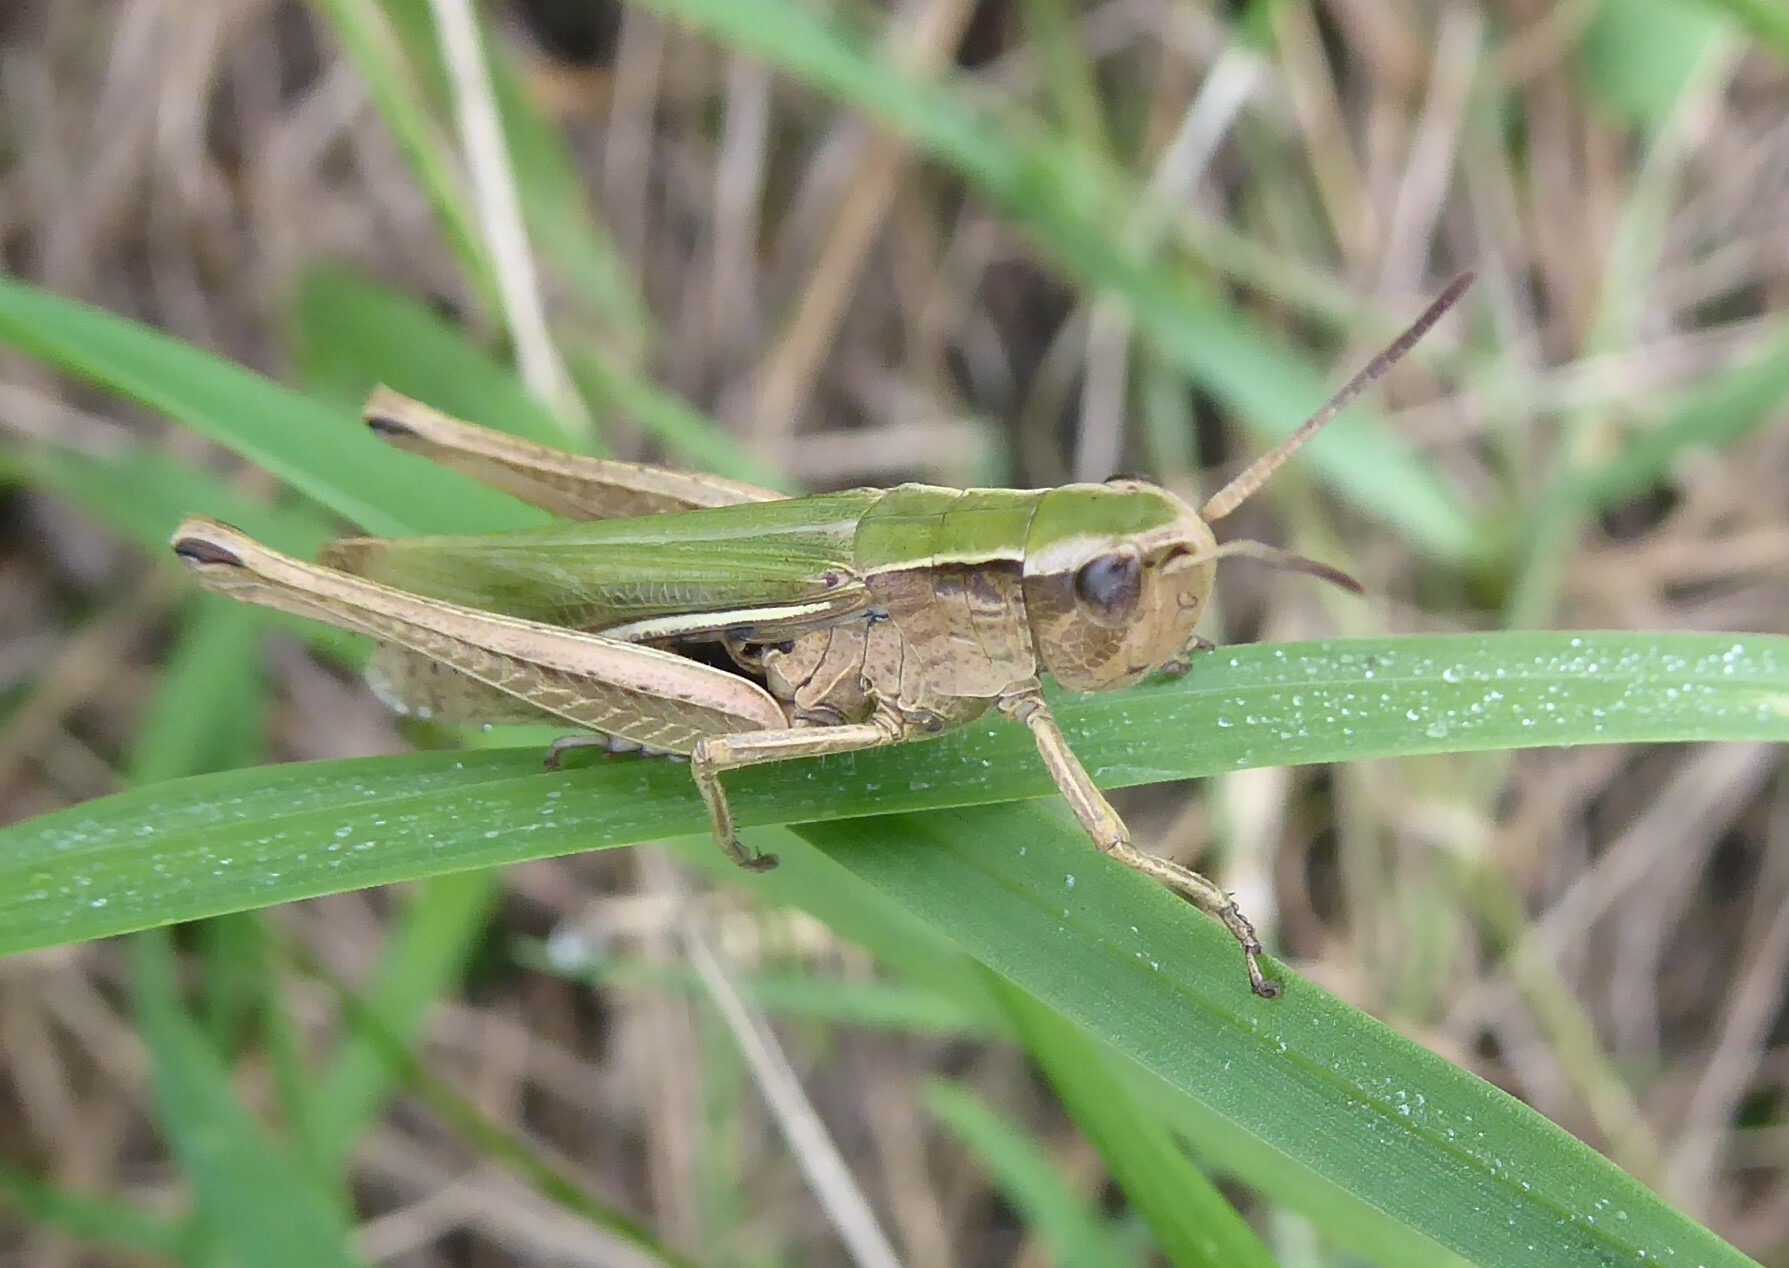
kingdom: Animalia
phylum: Arthropoda
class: Insecta
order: Orthoptera
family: Acrididae
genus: Chorthippus
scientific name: Chorthippus albomarginatus
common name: Lesser marsh grasshopper
